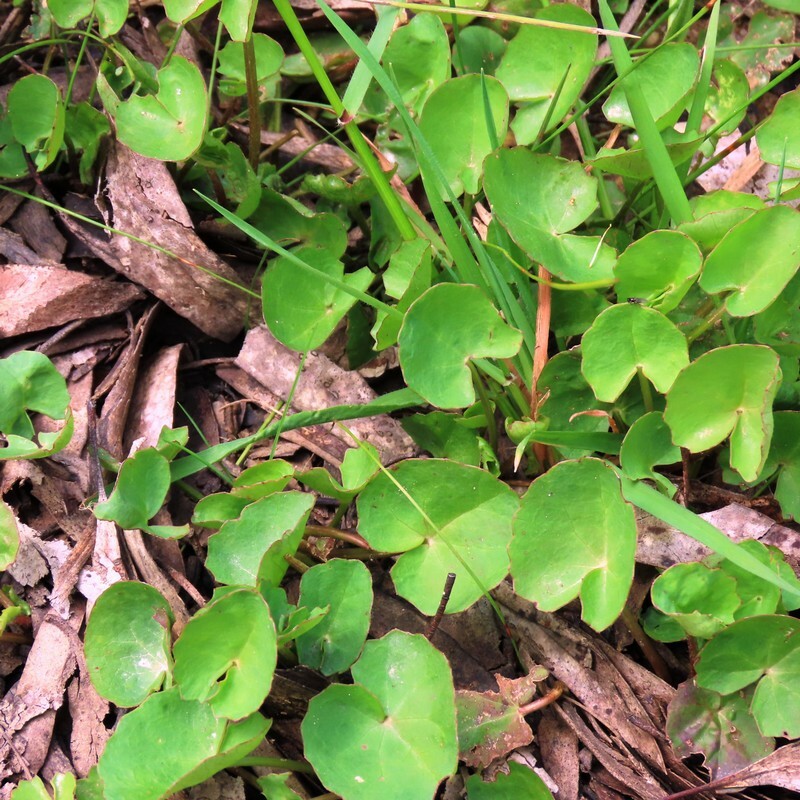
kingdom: Plantae
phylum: Tracheophyta
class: Magnoliopsida
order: Apiales
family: Apiaceae
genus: Centella
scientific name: Centella cordifolia
